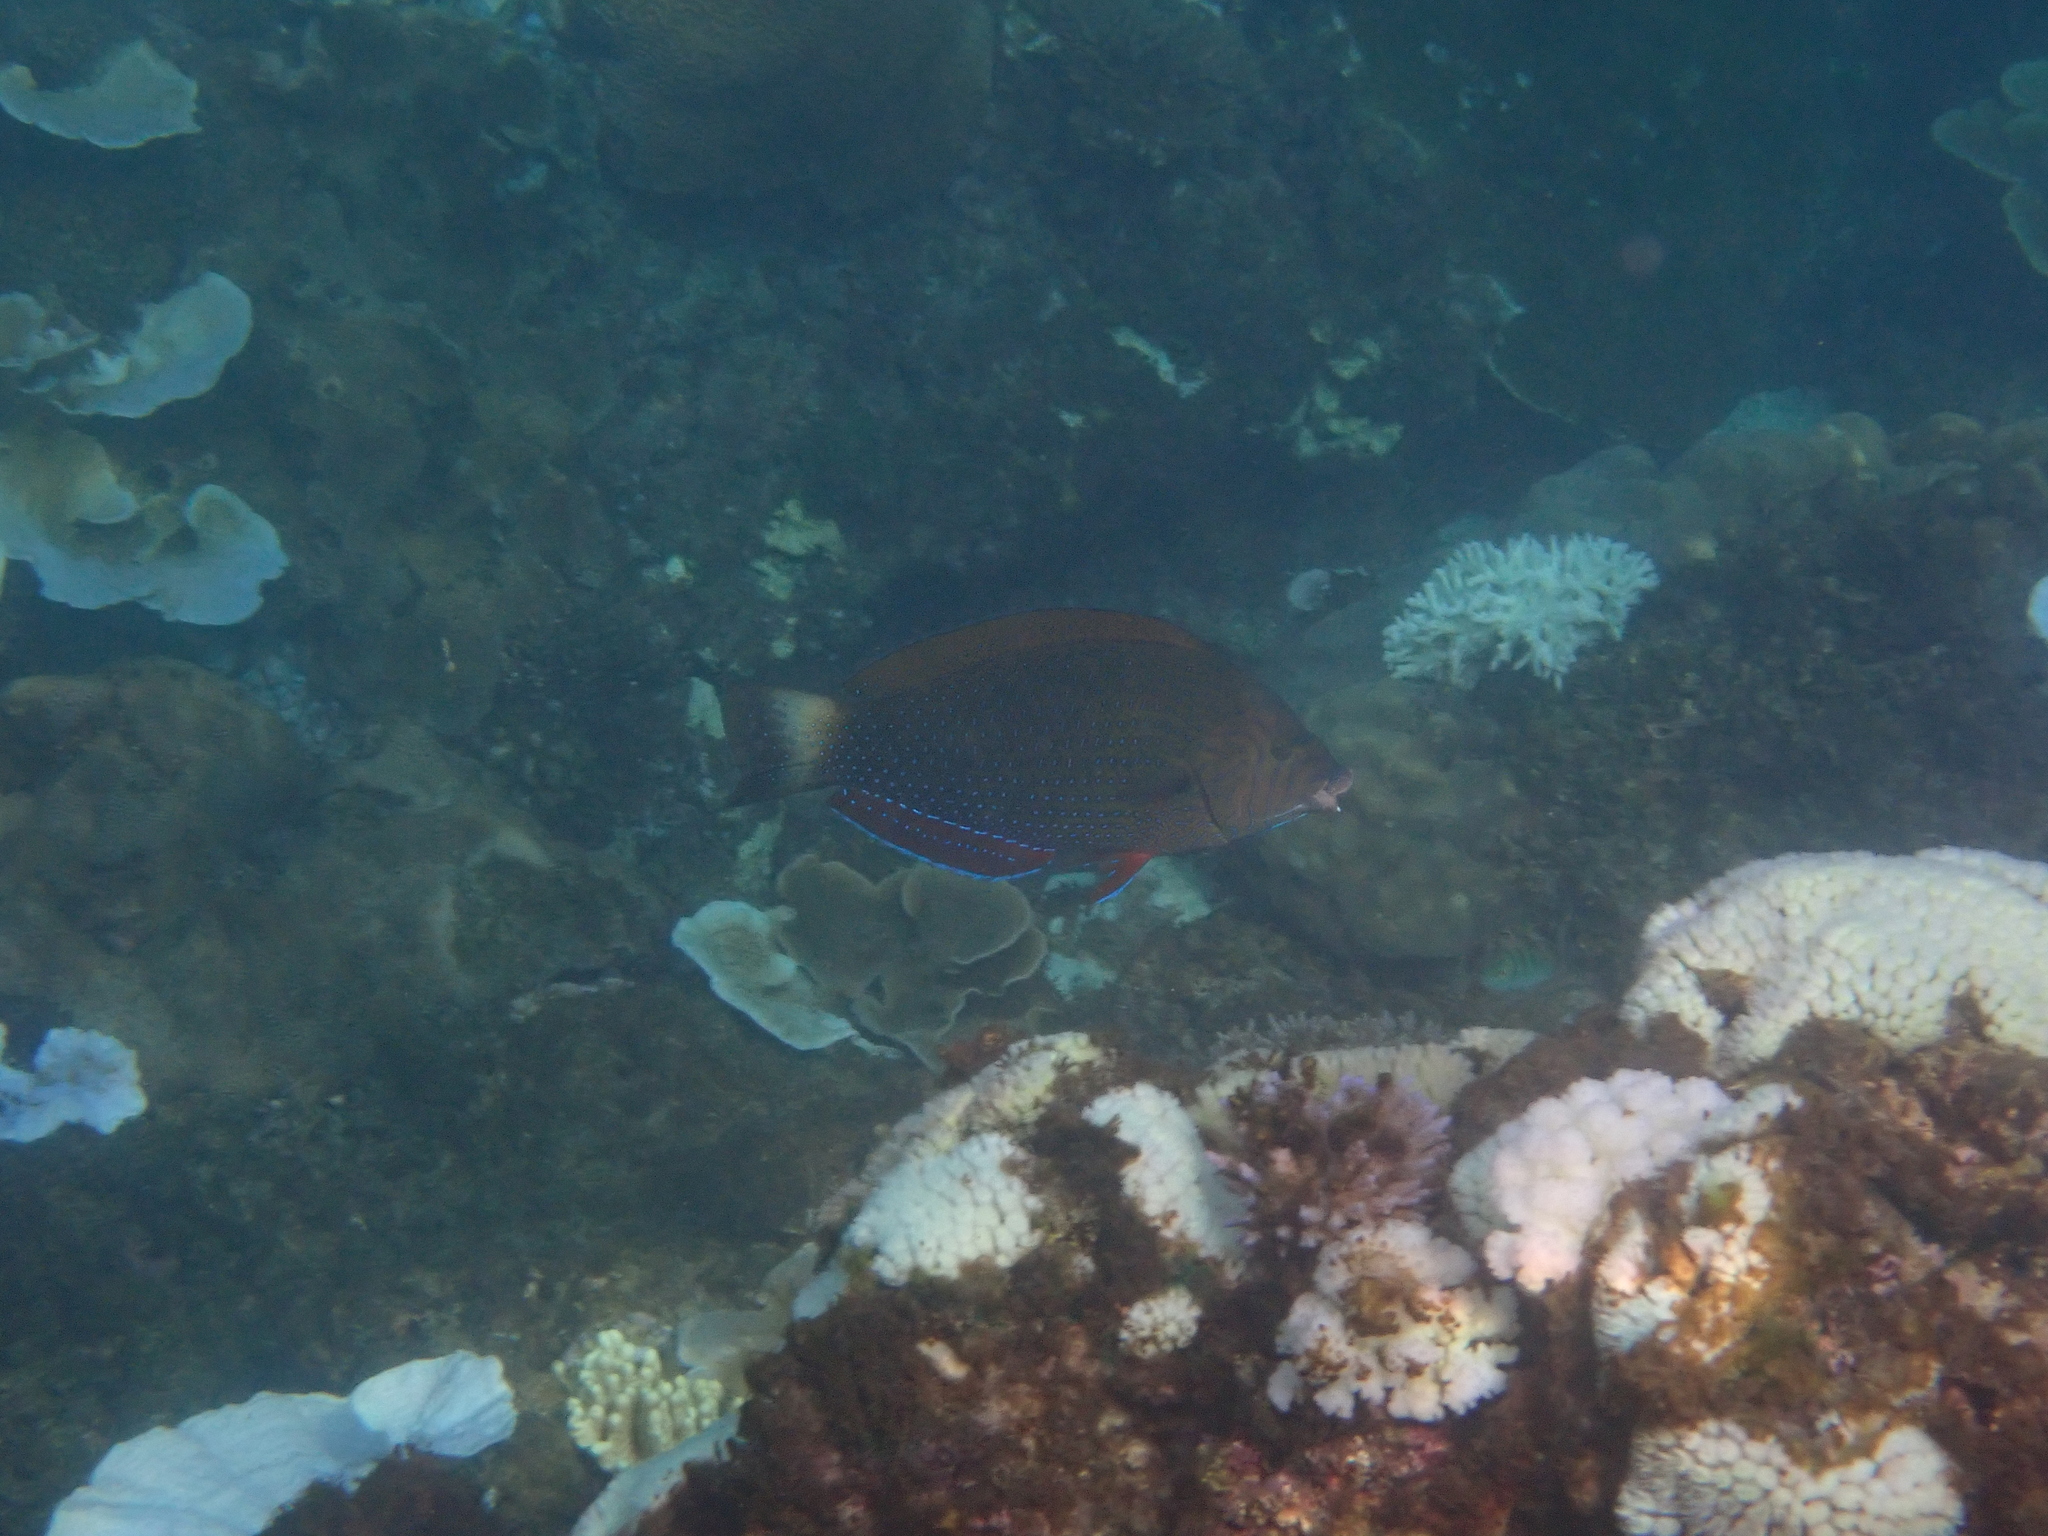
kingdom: Animalia
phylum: Chordata
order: Perciformes
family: Labridae
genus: Anampses
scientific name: Anampses caeruleopunctatus
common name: Bluespotted wrasse
